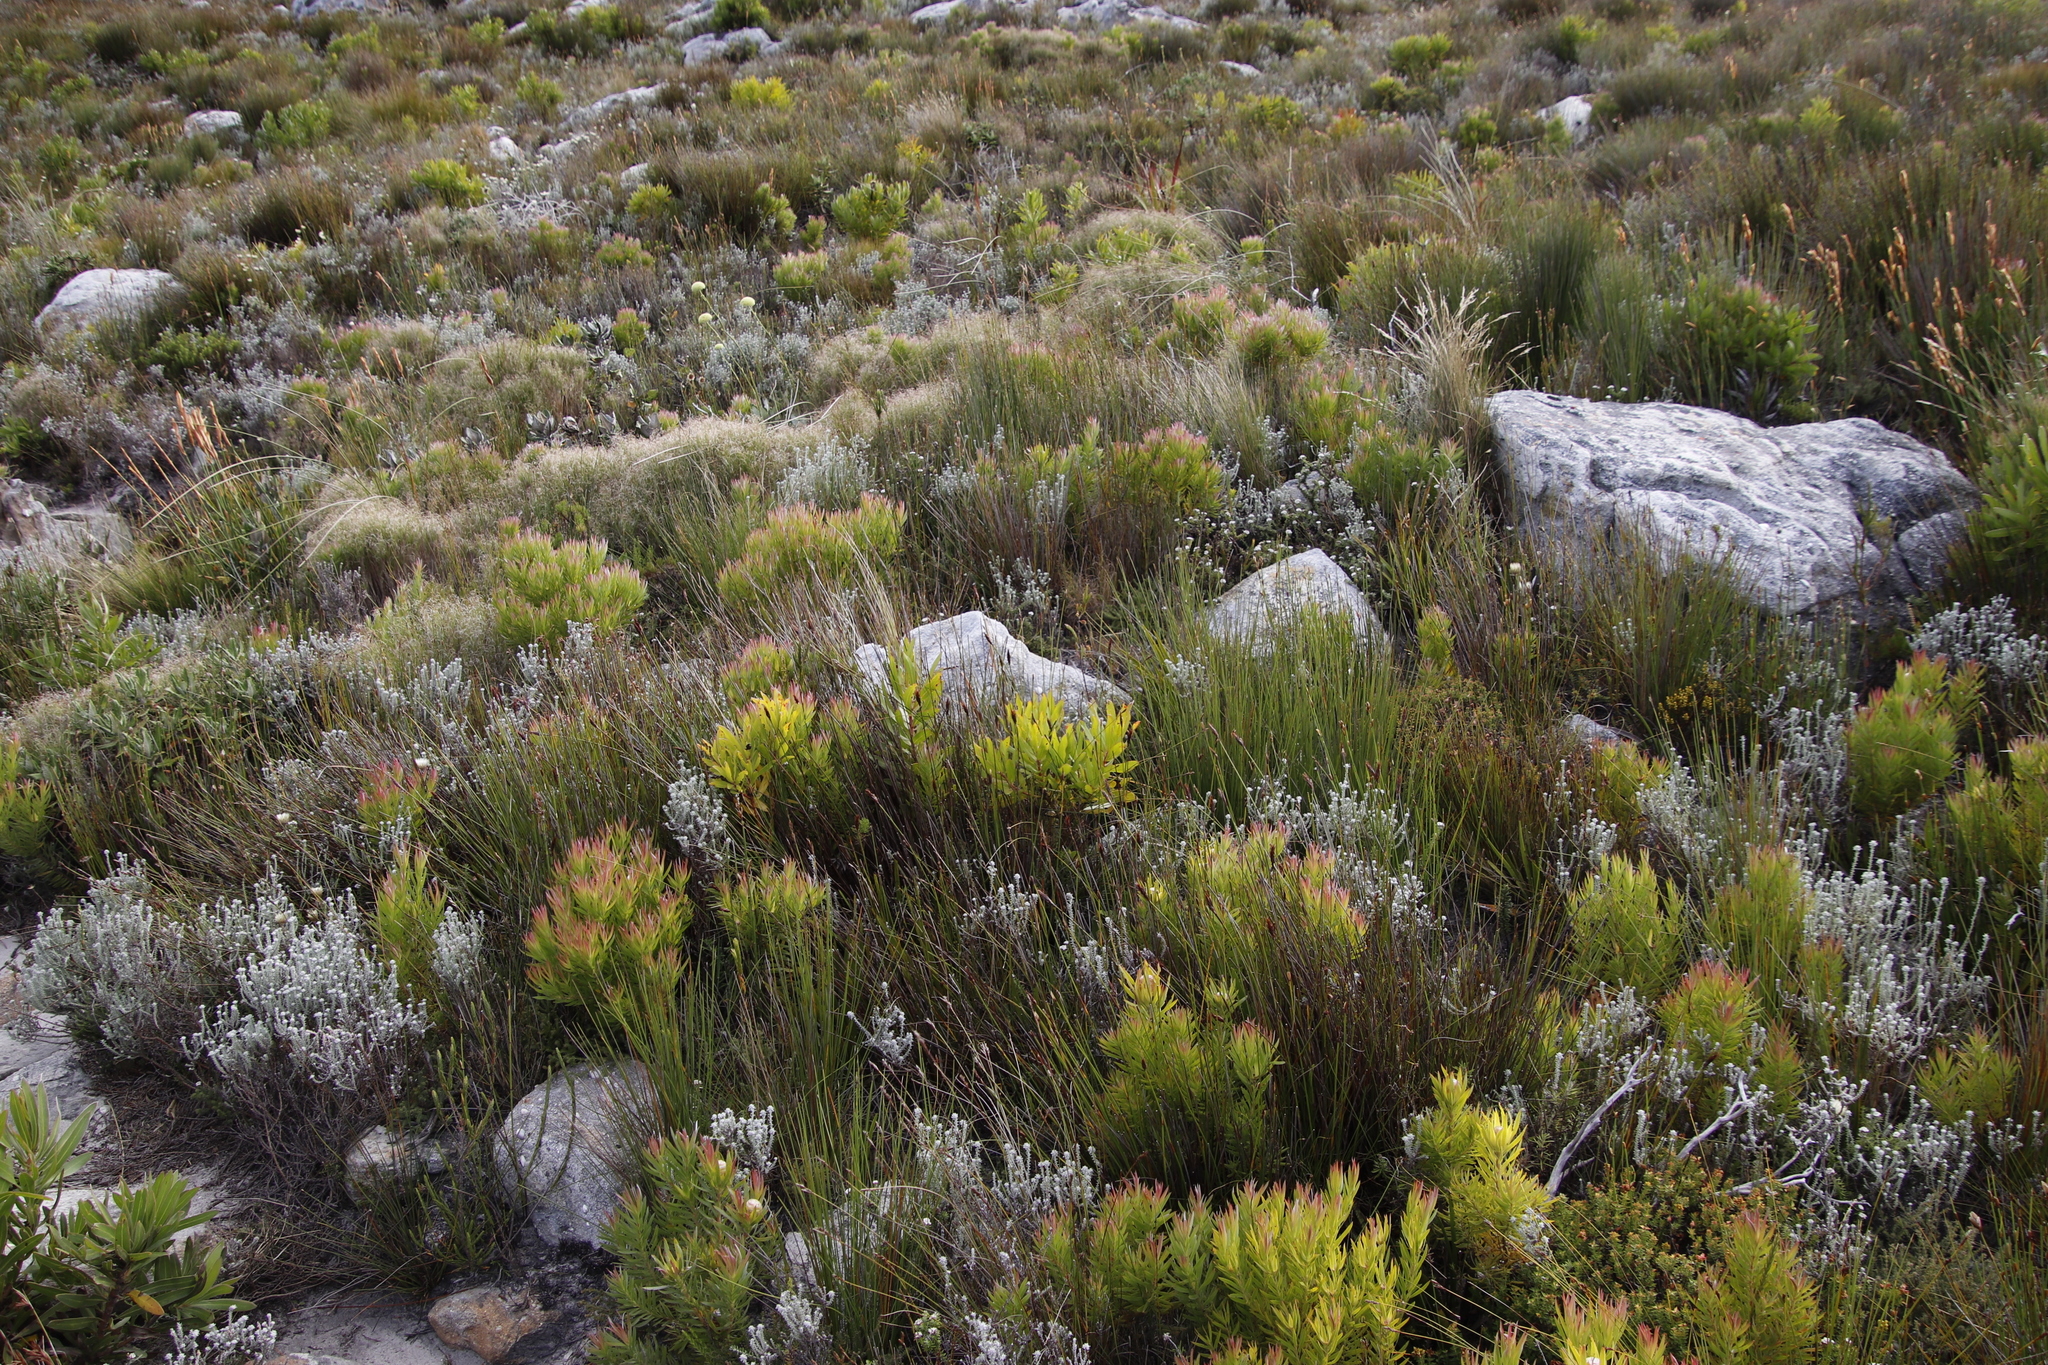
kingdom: Plantae
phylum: Tracheophyta
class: Magnoliopsida
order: Proteales
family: Proteaceae
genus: Leucadendron
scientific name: Leucadendron xanthoconus
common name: Sickle-leaf conebush
